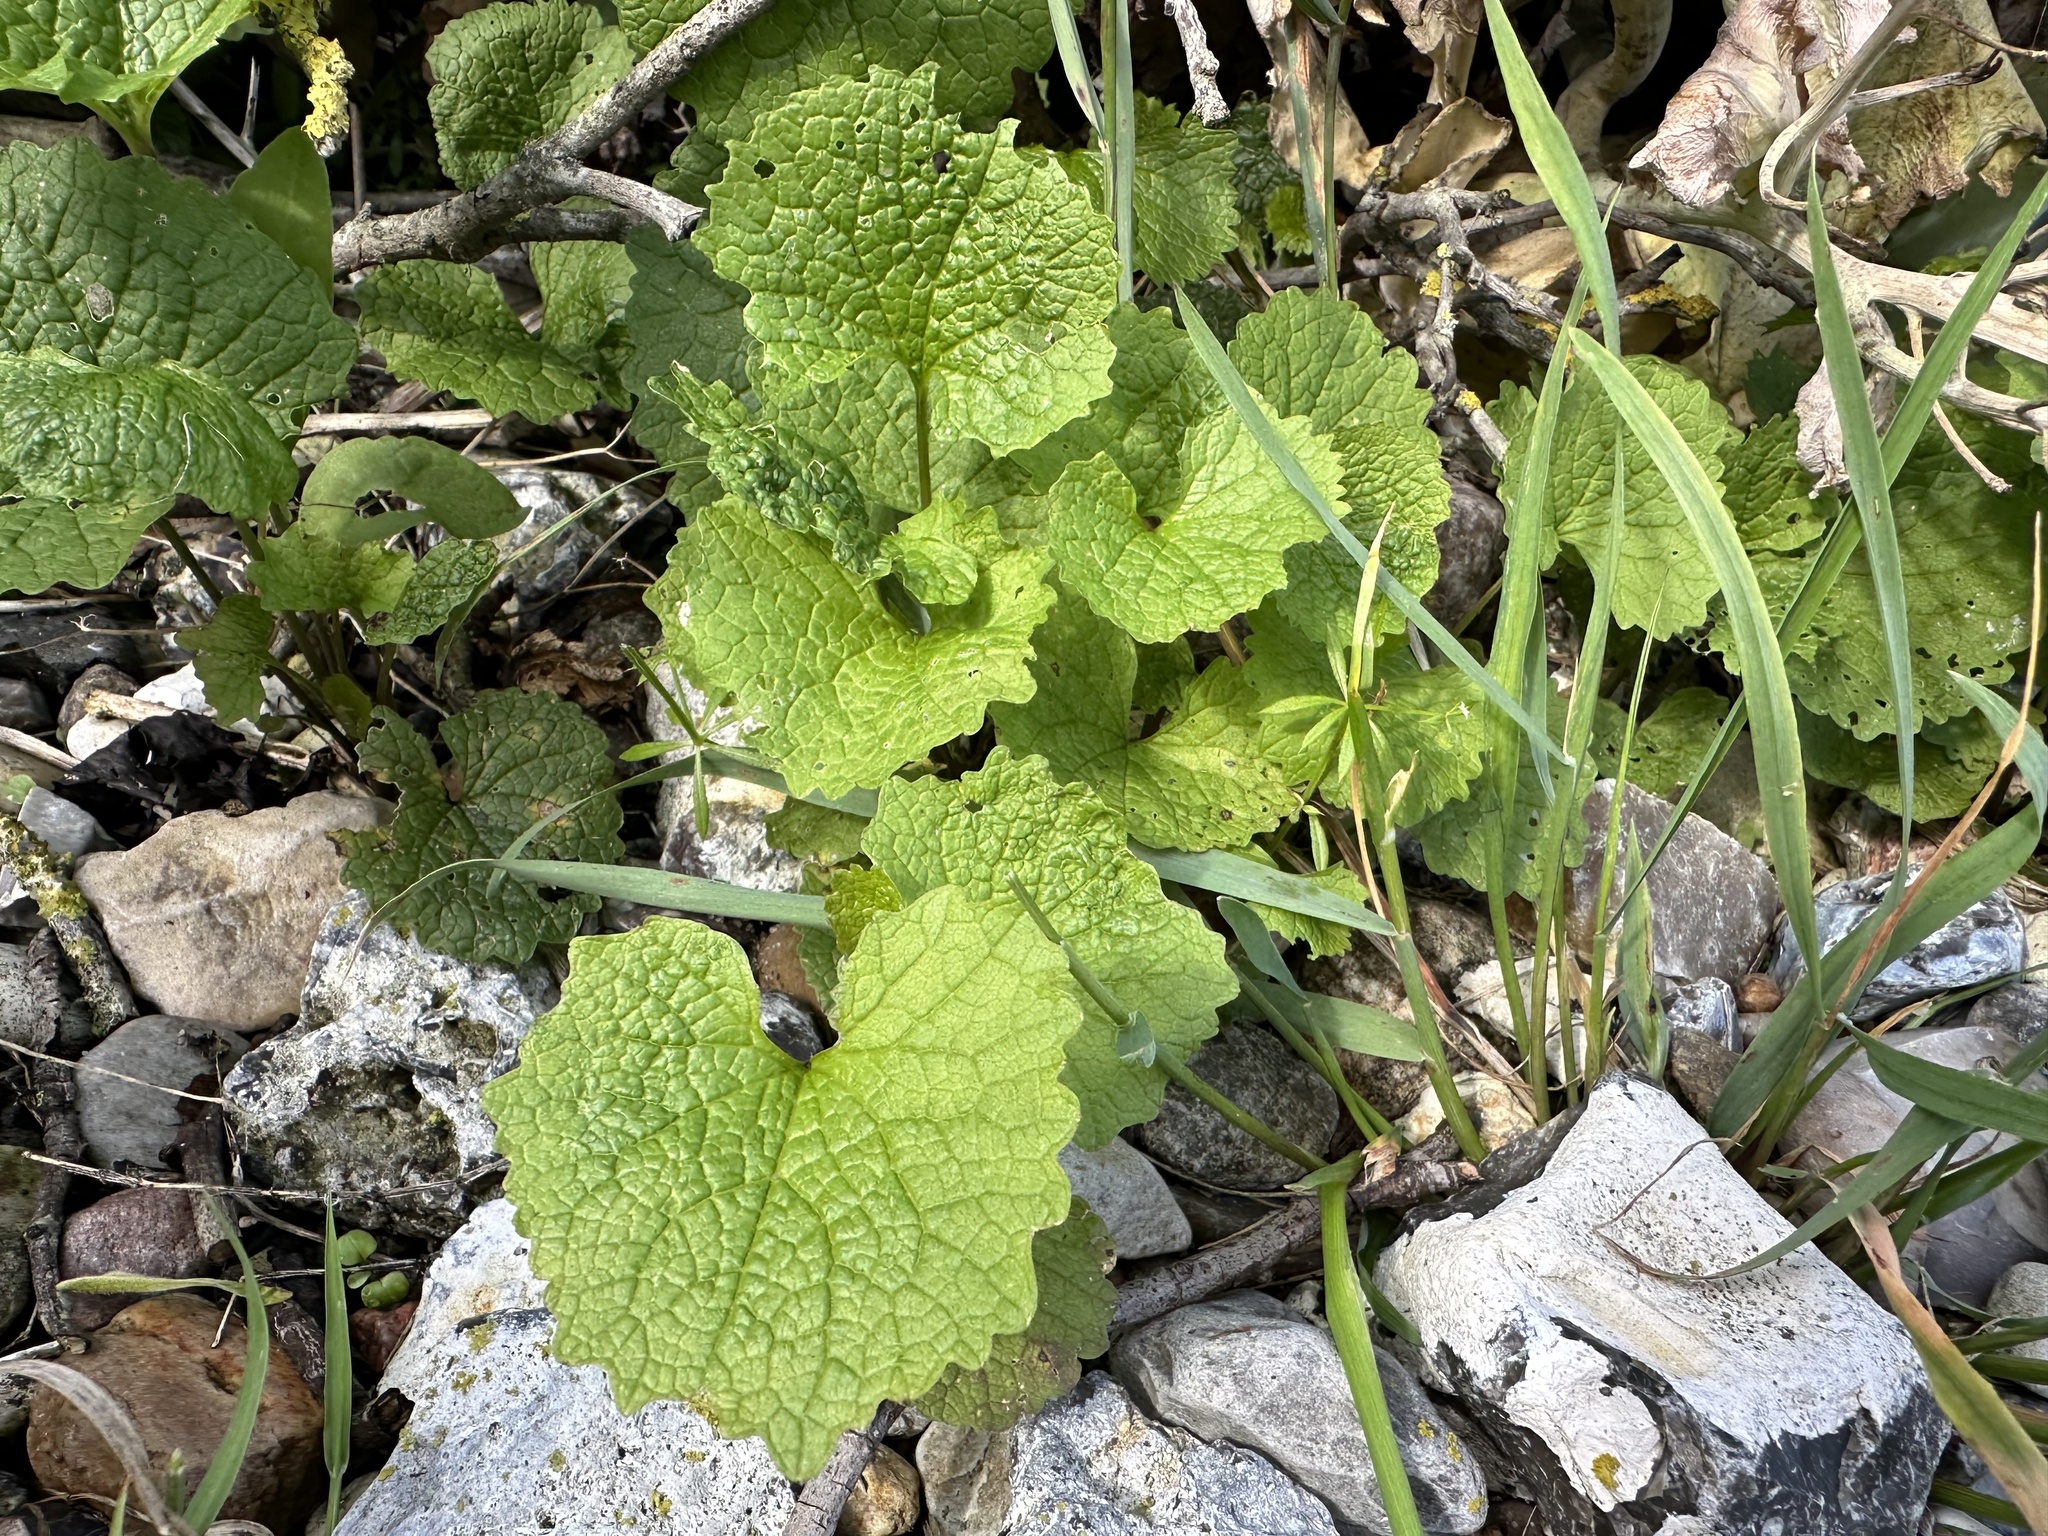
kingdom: Plantae
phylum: Tracheophyta
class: Magnoliopsida
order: Brassicales
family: Brassicaceae
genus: Alliaria
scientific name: Alliaria petiolata
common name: Garlic mustard
